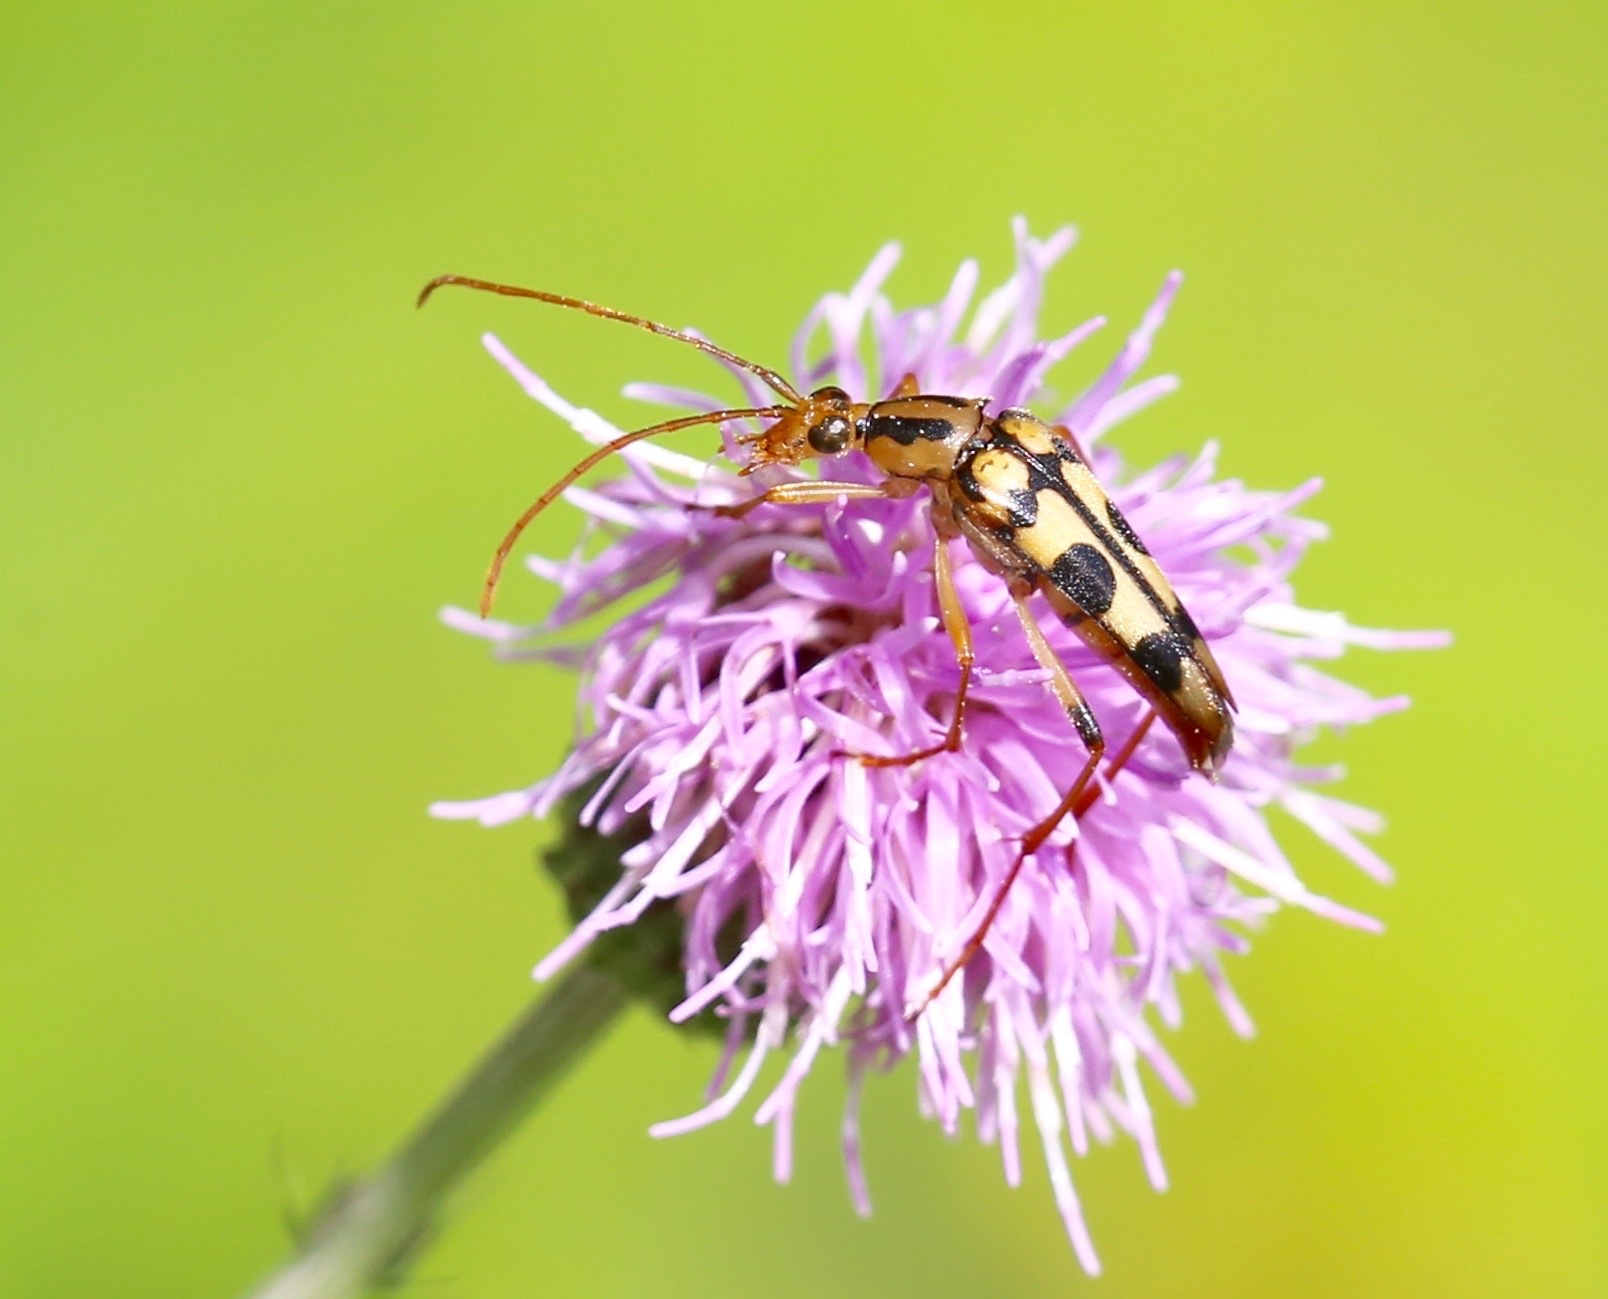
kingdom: Animalia
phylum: Arthropoda
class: Insecta
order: Coleoptera
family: Cerambycidae
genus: Strangalia
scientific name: Strangalia luteicornis
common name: Yellow-horned flower longhorn beetle
